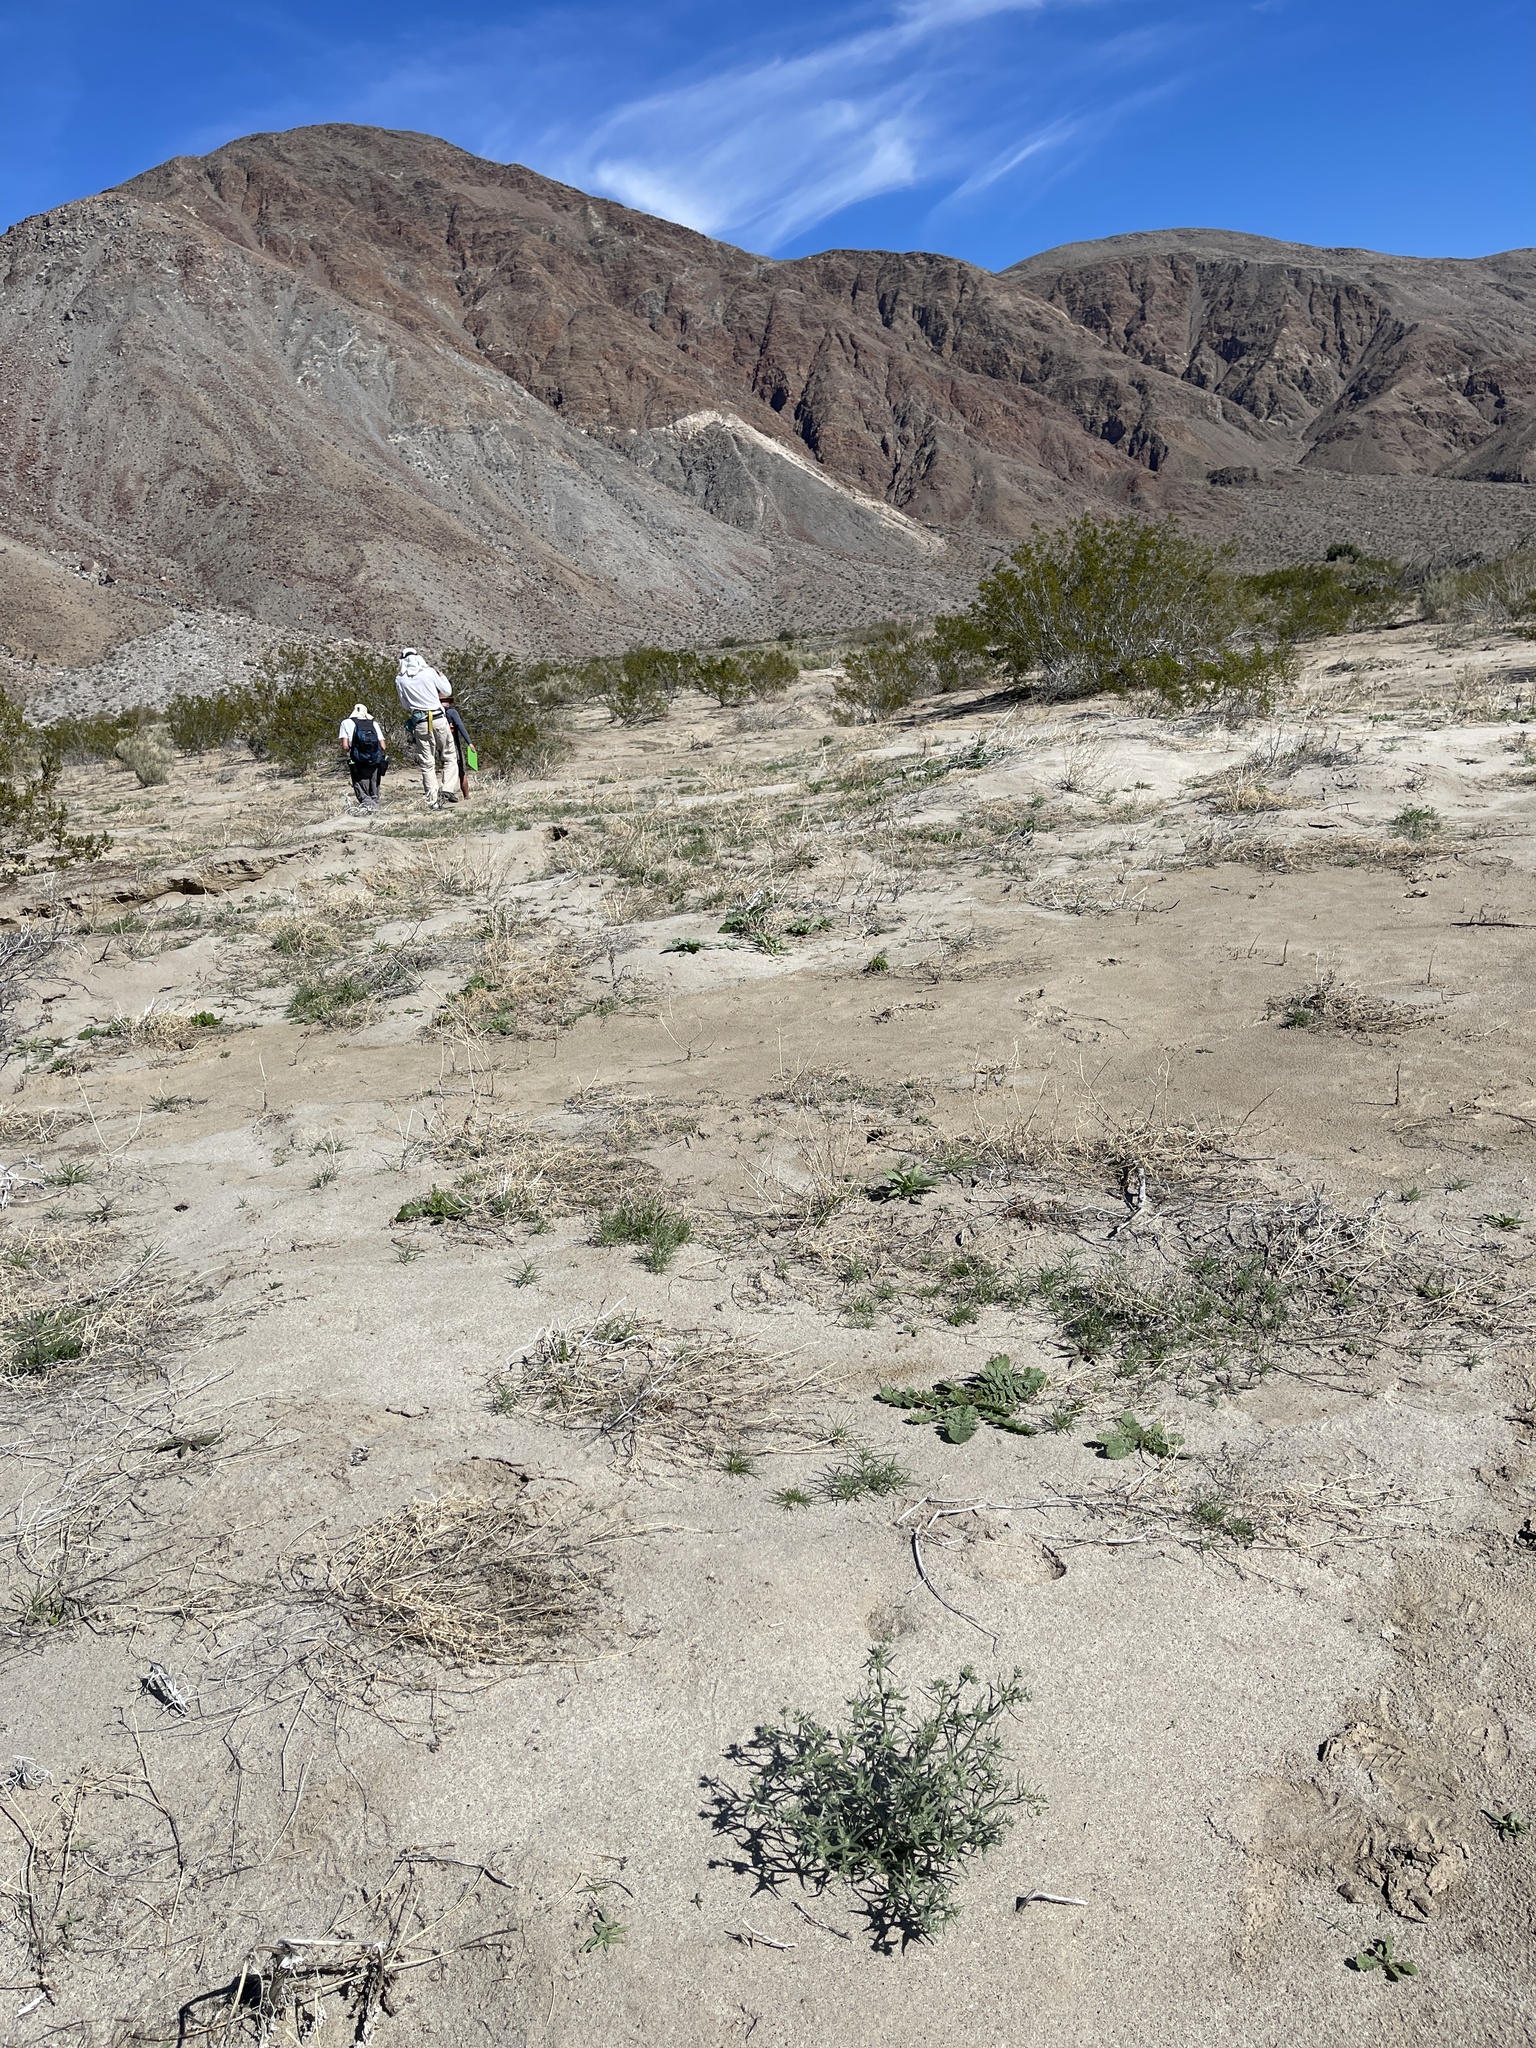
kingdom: Plantae
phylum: Tracheophyta
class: Magnoliopsida
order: Boraginales
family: Boraginaceae
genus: Johnstonella
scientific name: Johnstonella costata
